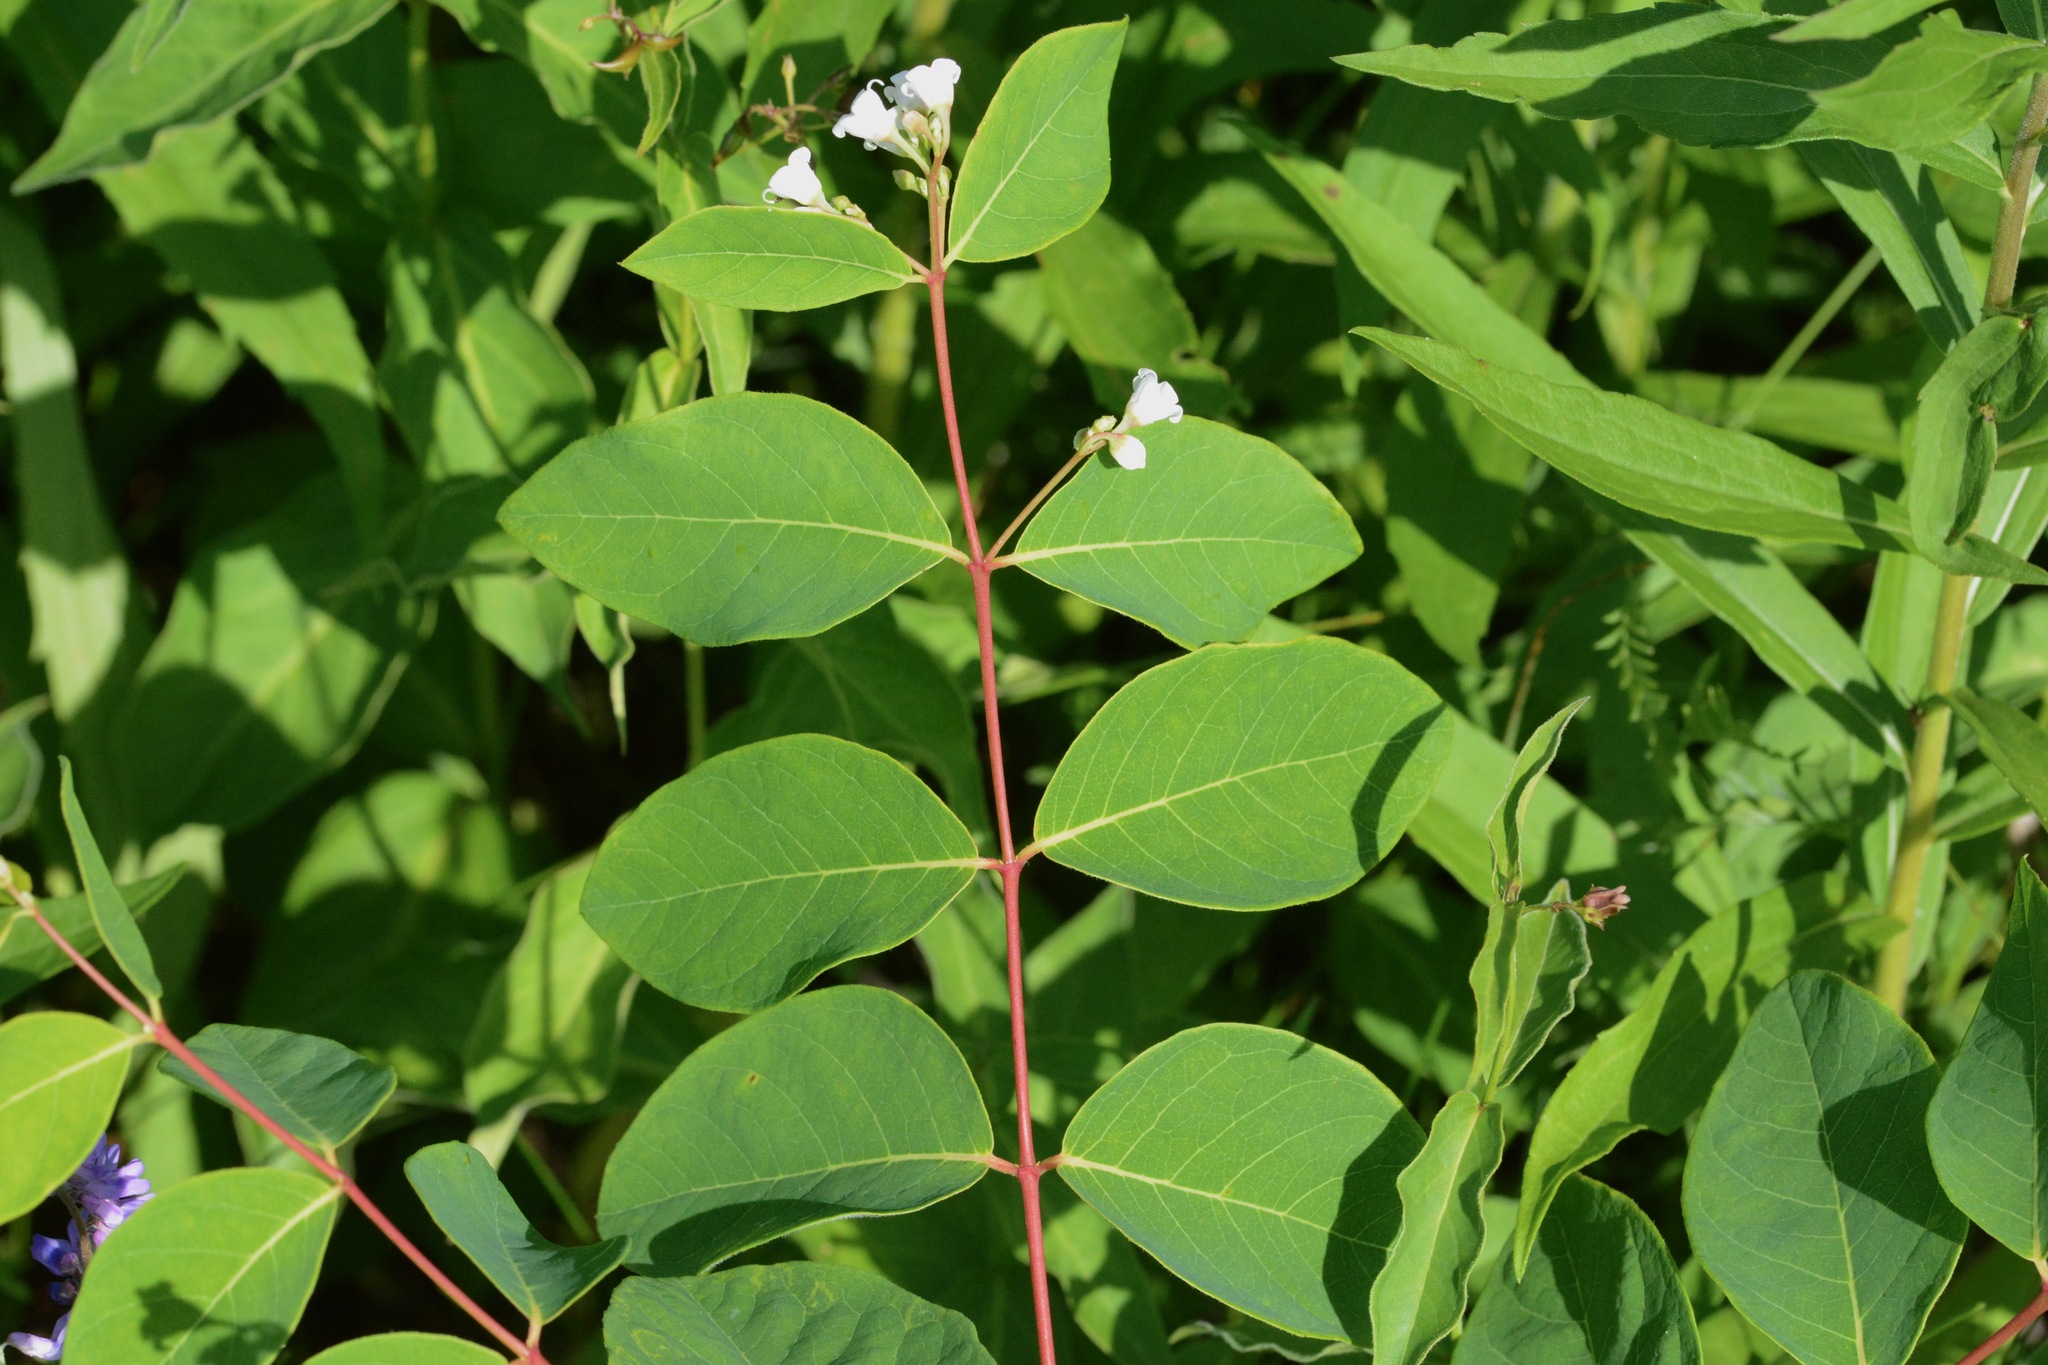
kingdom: Plantae
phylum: Tracheophyta
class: Magnoliopsida
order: Gentianales
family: Apocynaceae
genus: Apocynum
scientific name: Apocynum androsaemifolium
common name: Spreading dogbane
